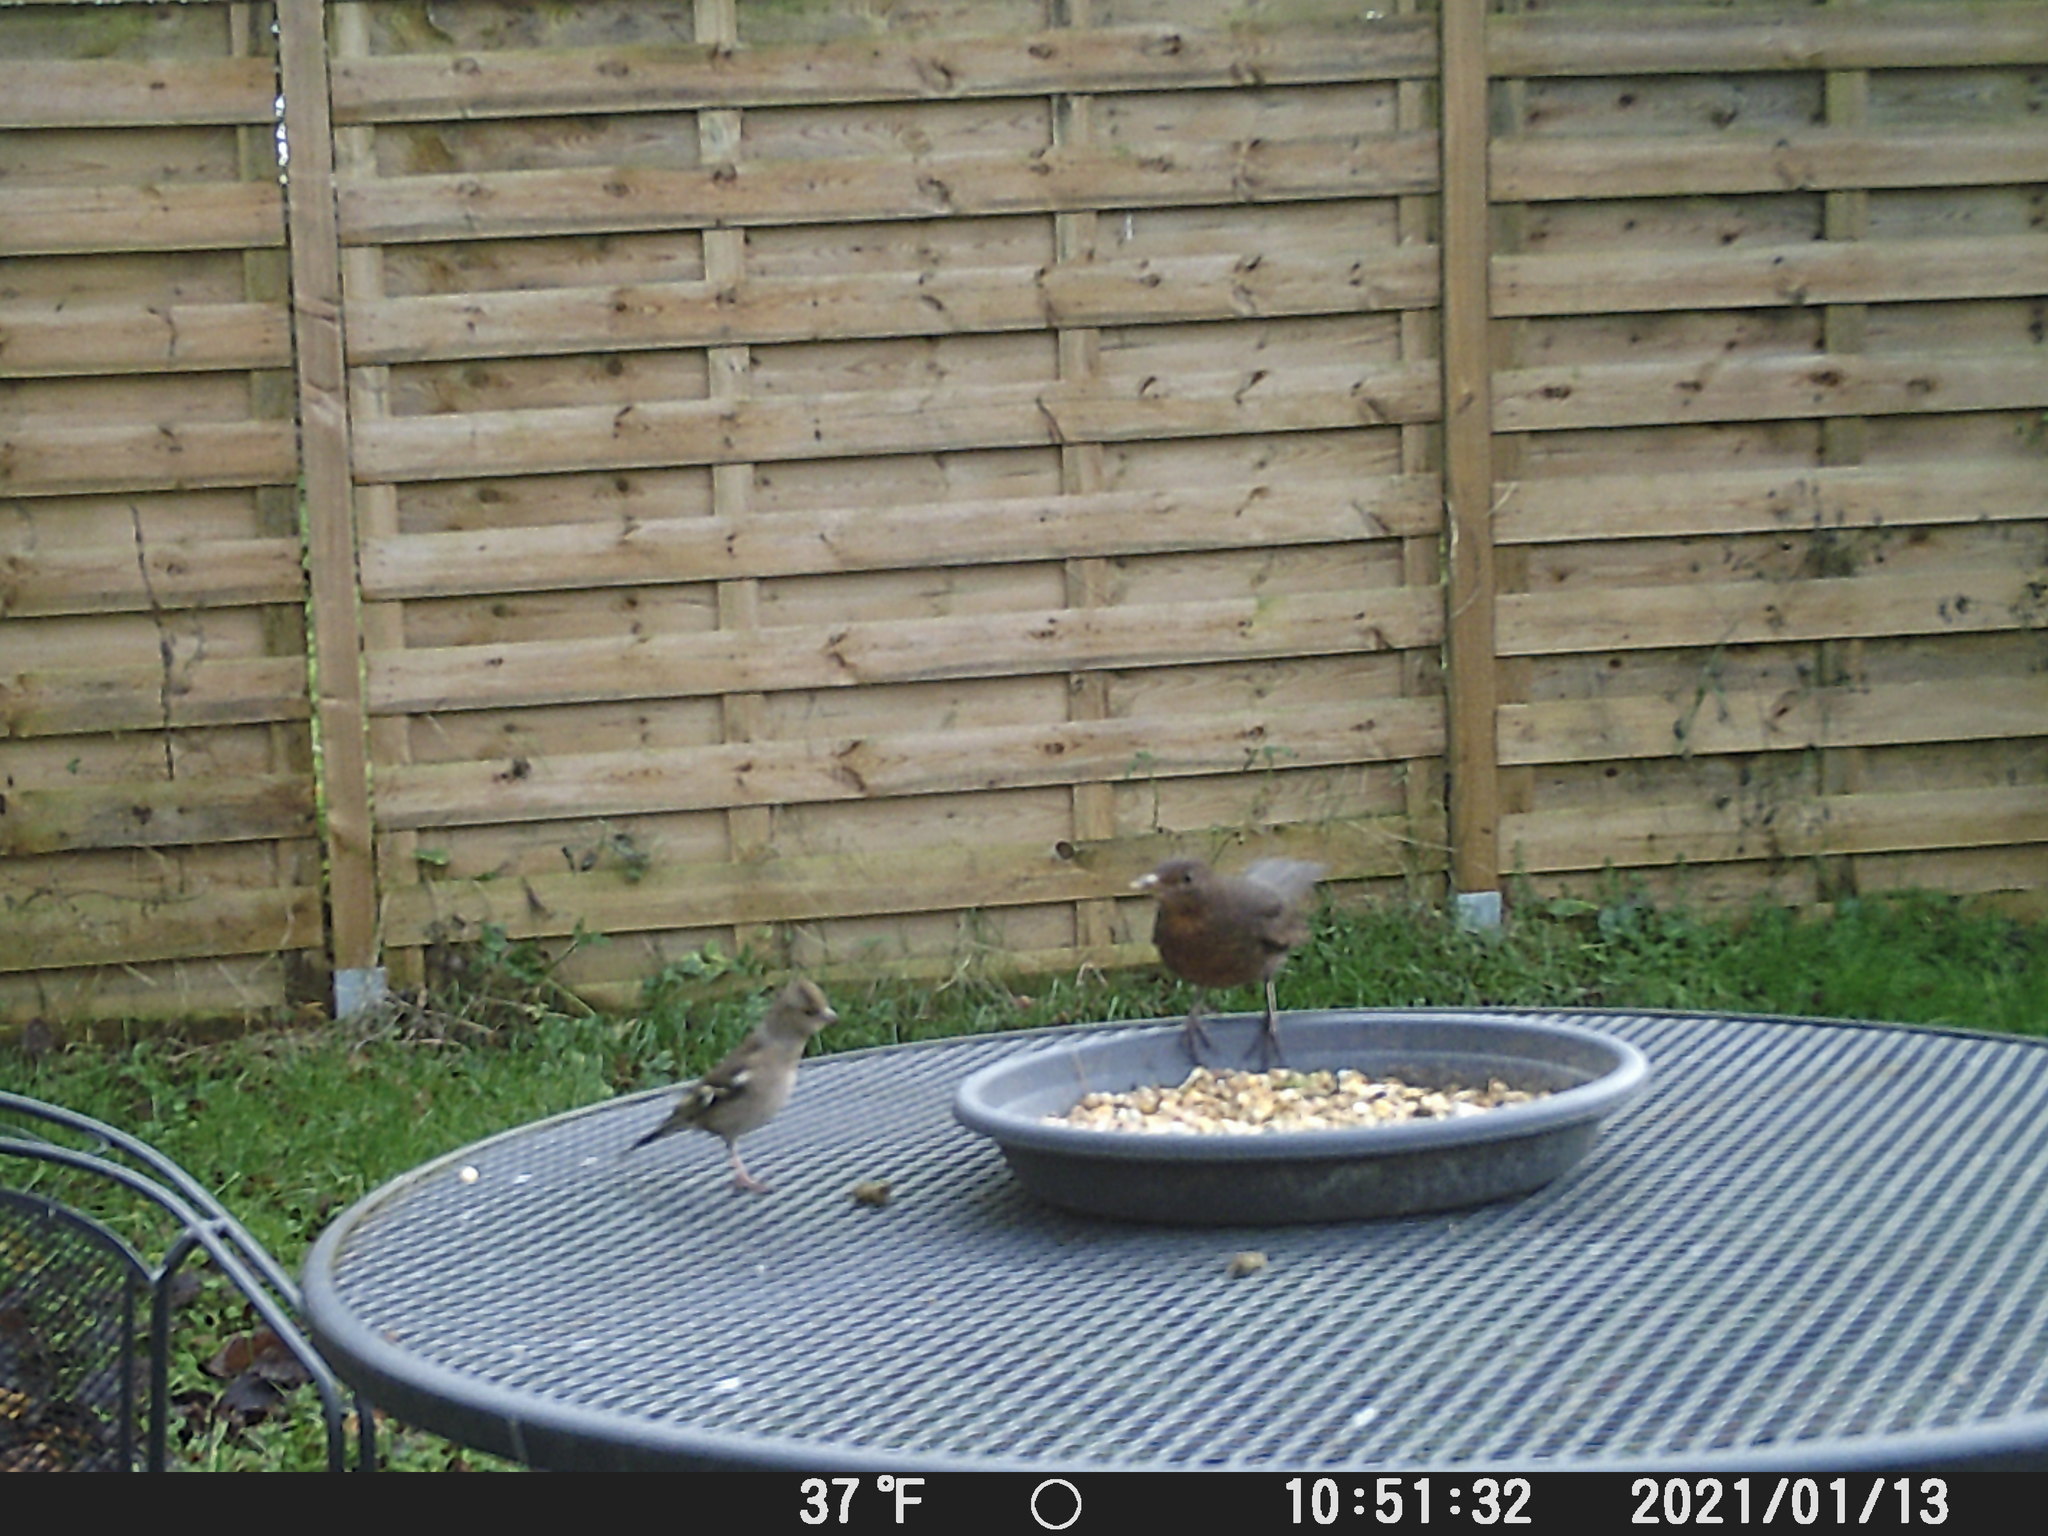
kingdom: Animalia
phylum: Chordata
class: Aves
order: Passeriformes
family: Fringillidae
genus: Fringilla
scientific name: Fringilla coelebs
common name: Common chaffinch
